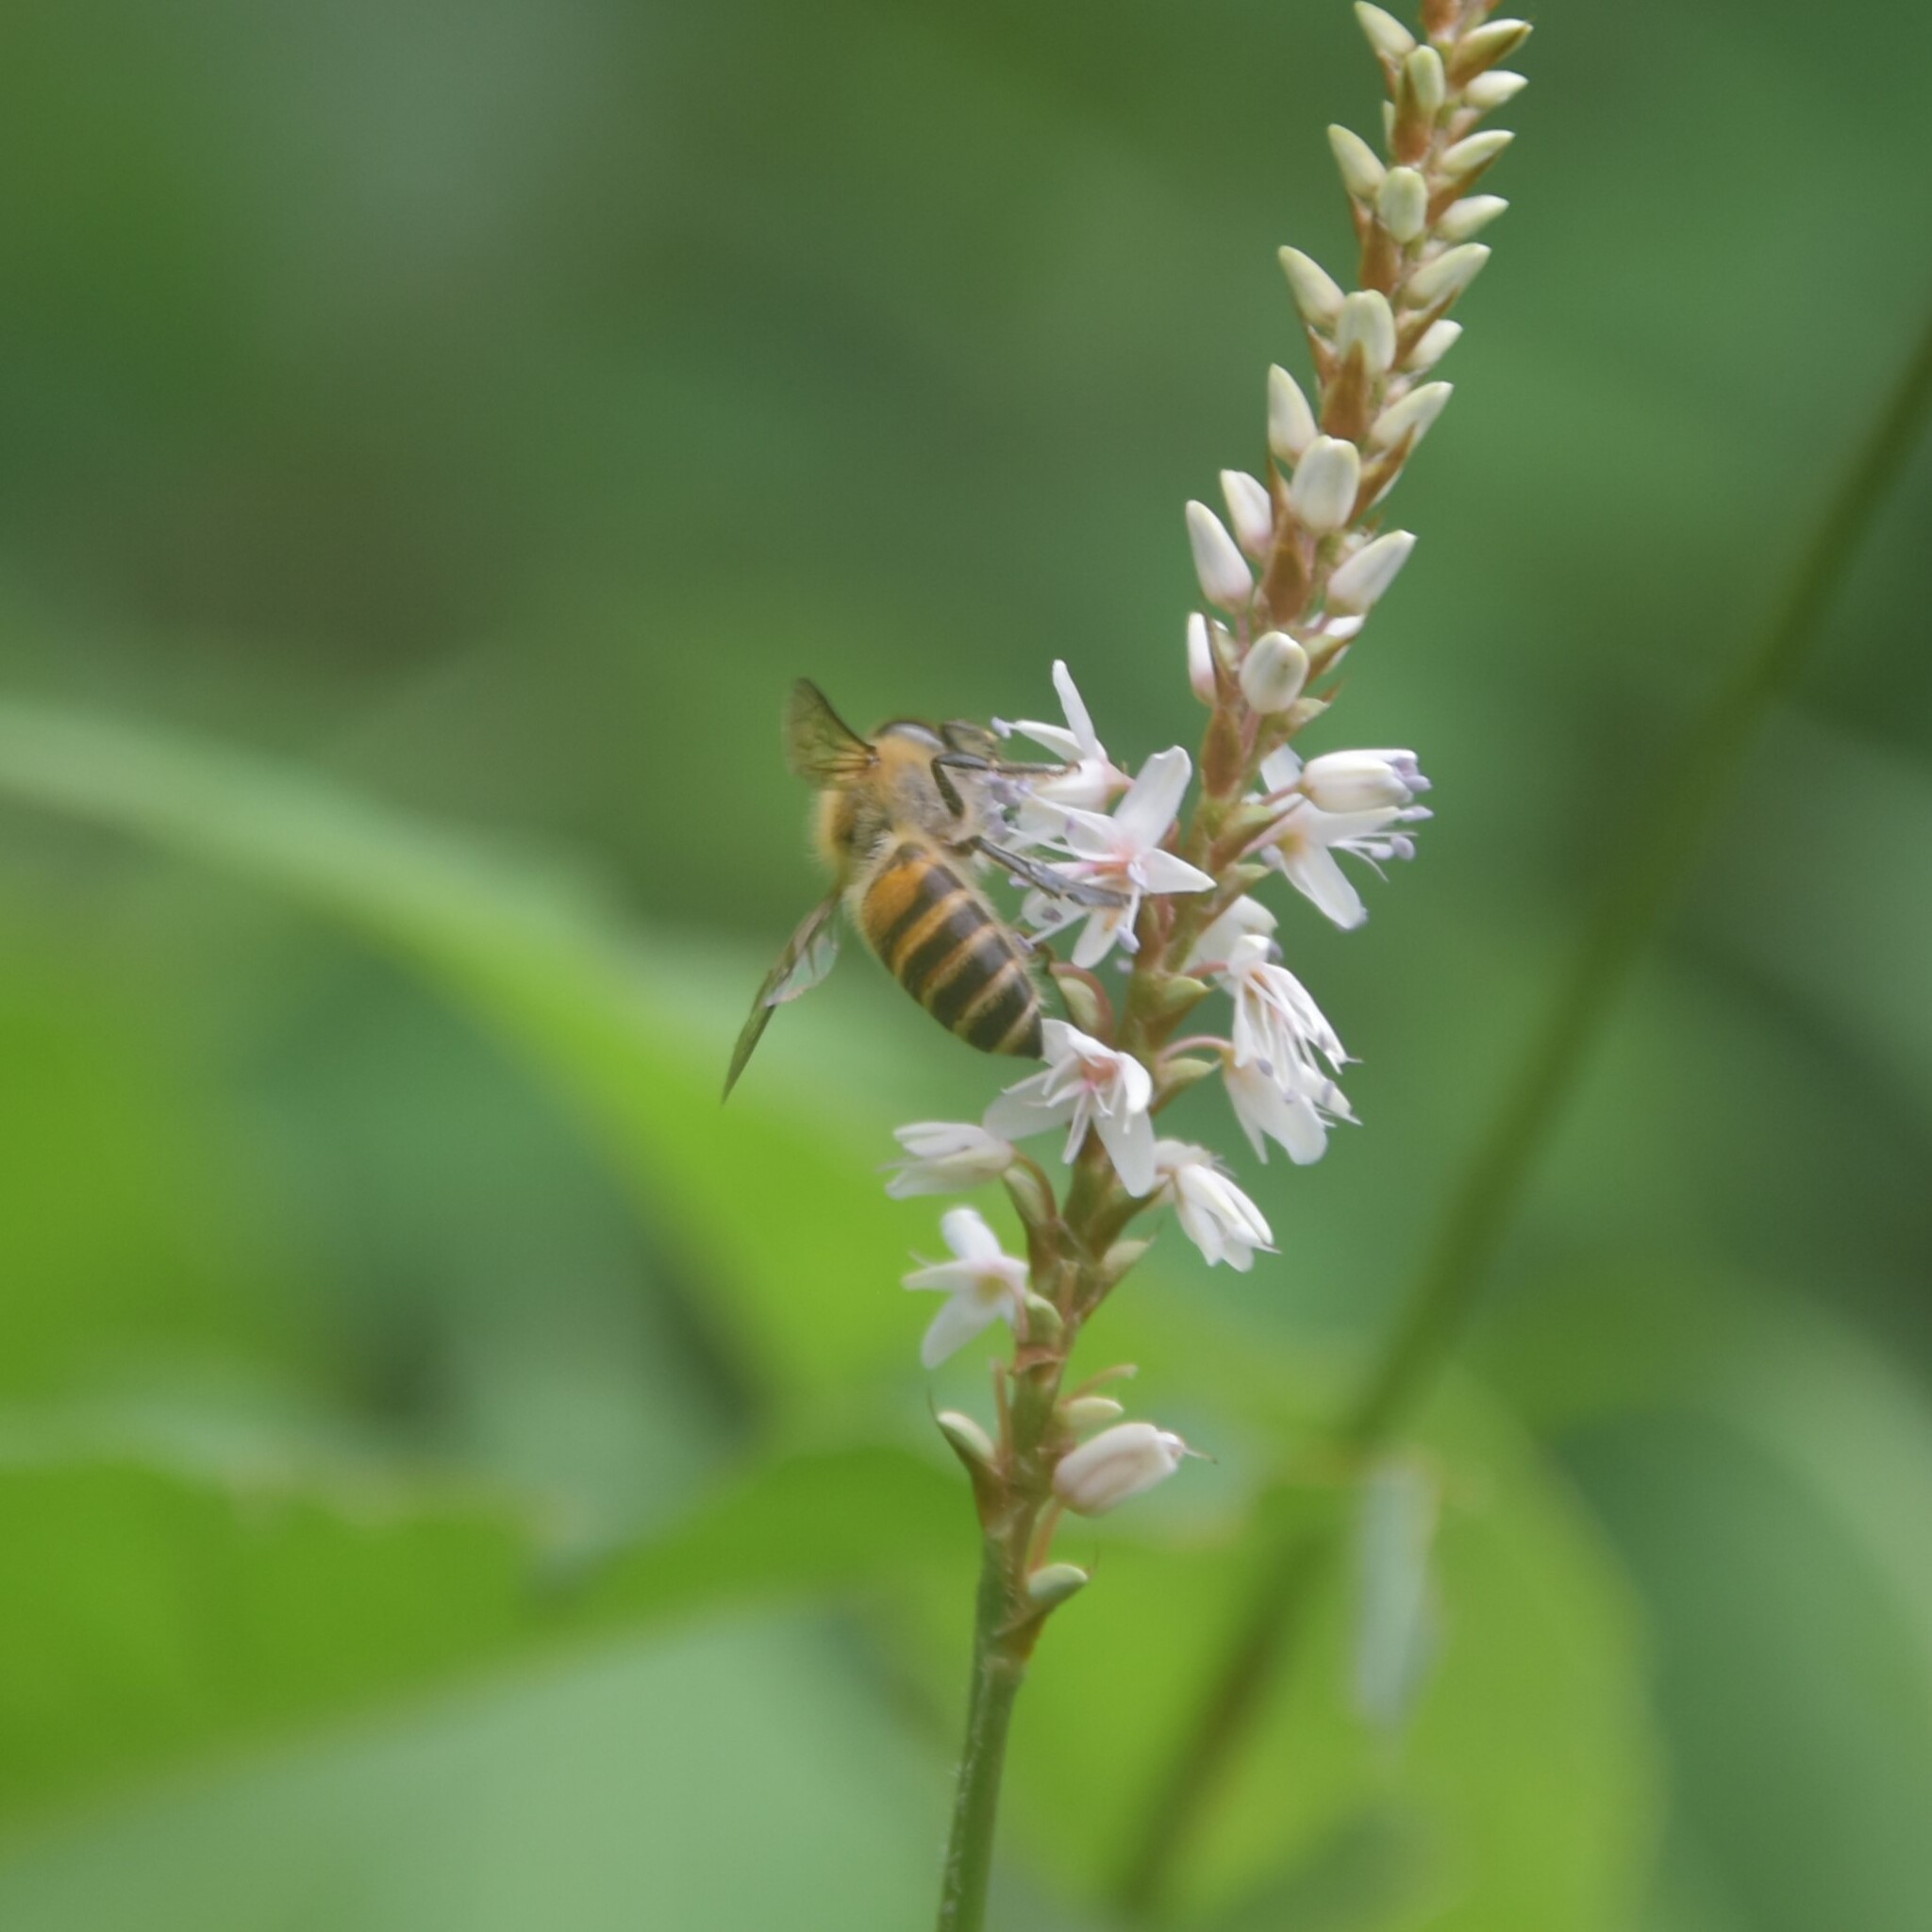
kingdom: Animalia
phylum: Arthropoda
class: Insecta
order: Hymenoptera
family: Apidae
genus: Apis
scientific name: Apis cerana
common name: Honey bee
